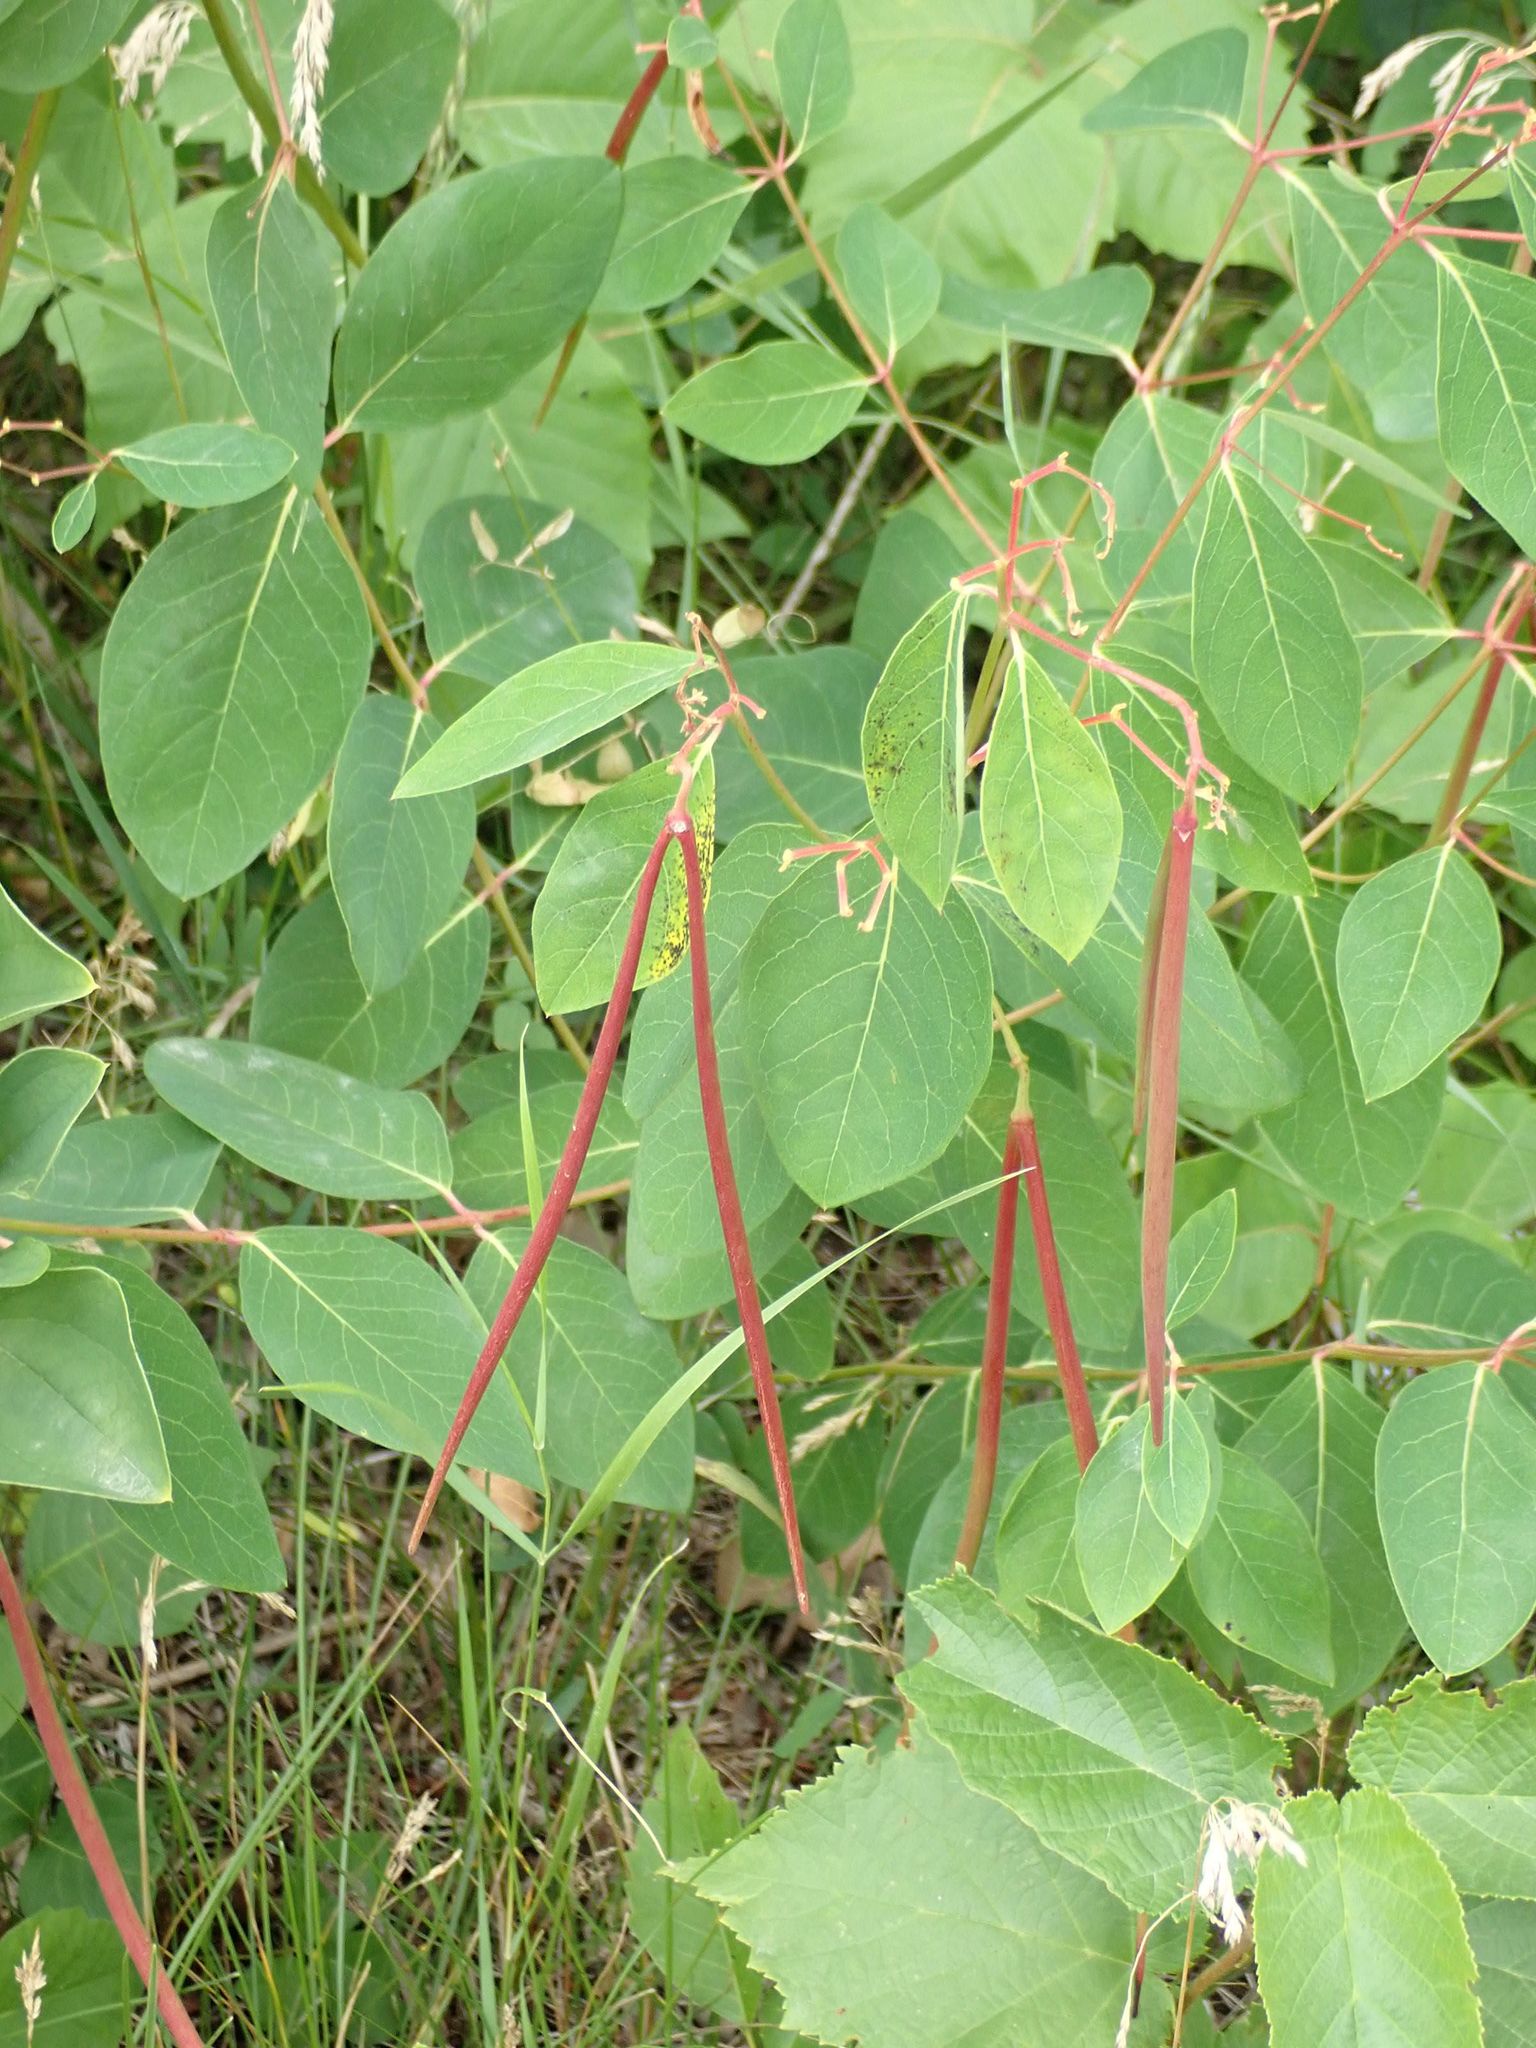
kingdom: Plantae
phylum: Tracheophyta
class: Magnoliopsida
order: Gentianales
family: Apocynaceae
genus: Apocynum
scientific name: Apocynum androsaemifolium
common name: Spreading dogbane
